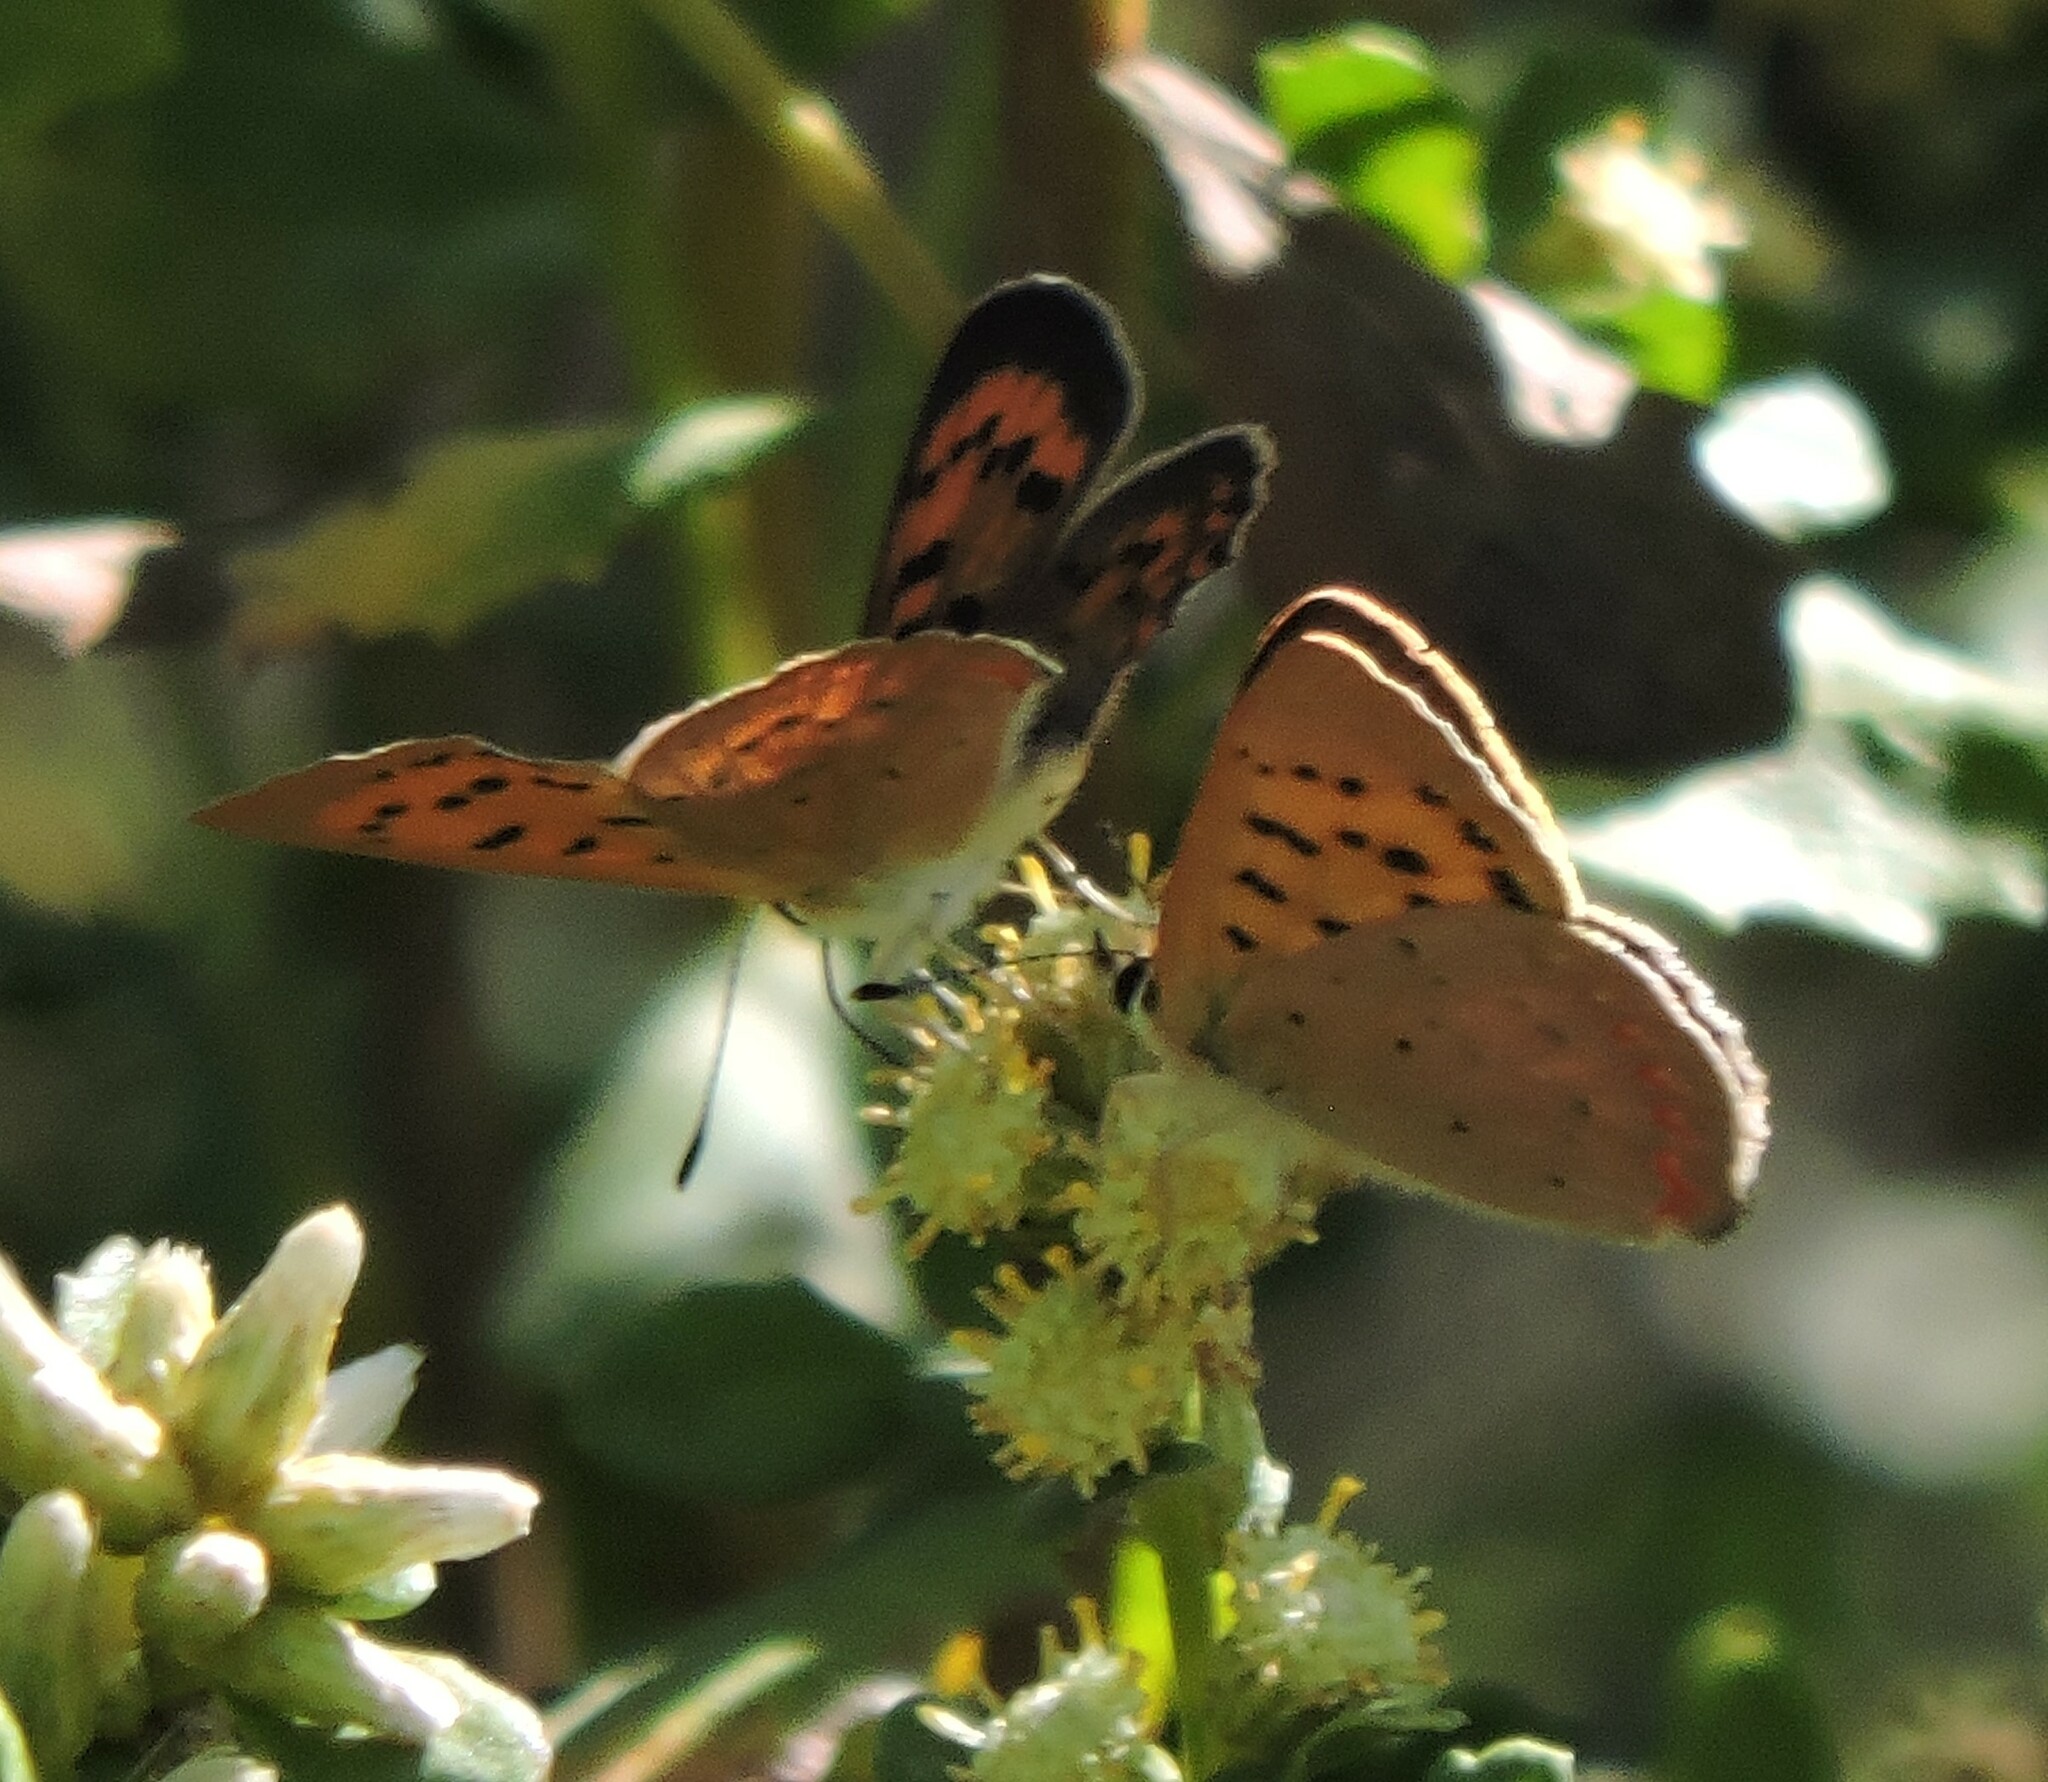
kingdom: Animalia
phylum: Arthropoda
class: Insecta
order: Lepidoptera
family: Lycaenidae
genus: Tharsalea
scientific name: Tharsalea helloides
